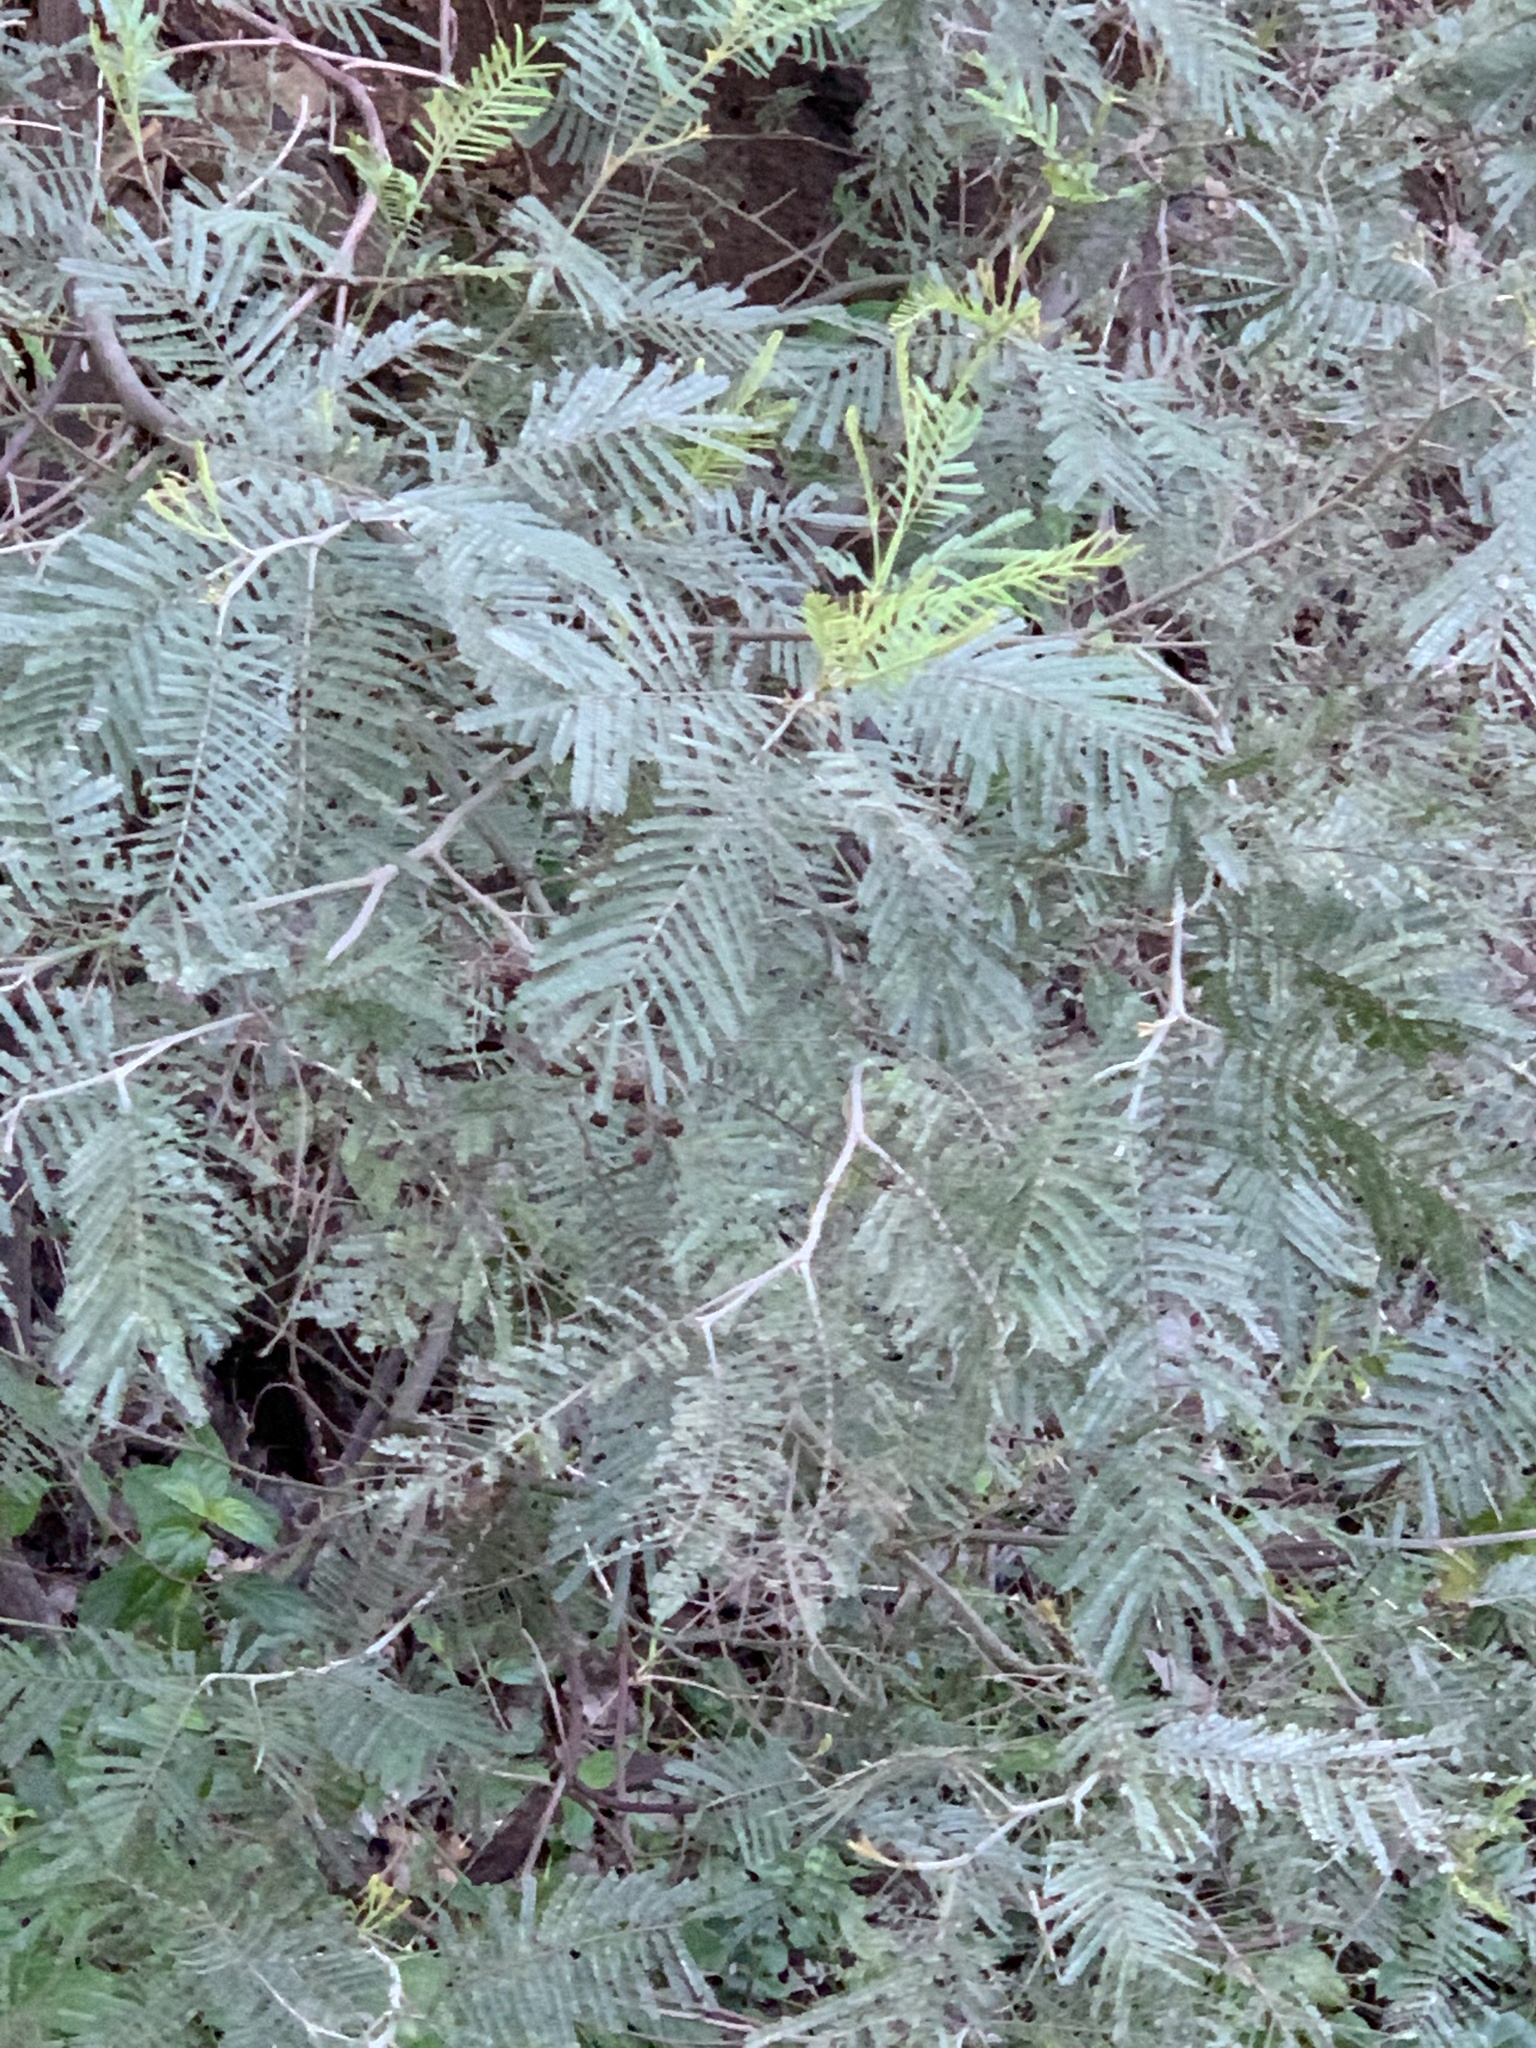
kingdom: Plantae
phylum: Tracheophyta
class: Magnoliopsida
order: Fabales
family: Fabaceae
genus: Acacia
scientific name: Acacia mearnsii
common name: Black wattle
